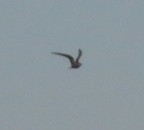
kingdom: Animalia
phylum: Chordata
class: Aves
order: Charadriiformes
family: Laridae
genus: Sterna
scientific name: Sterna hirundo
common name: Common tern
